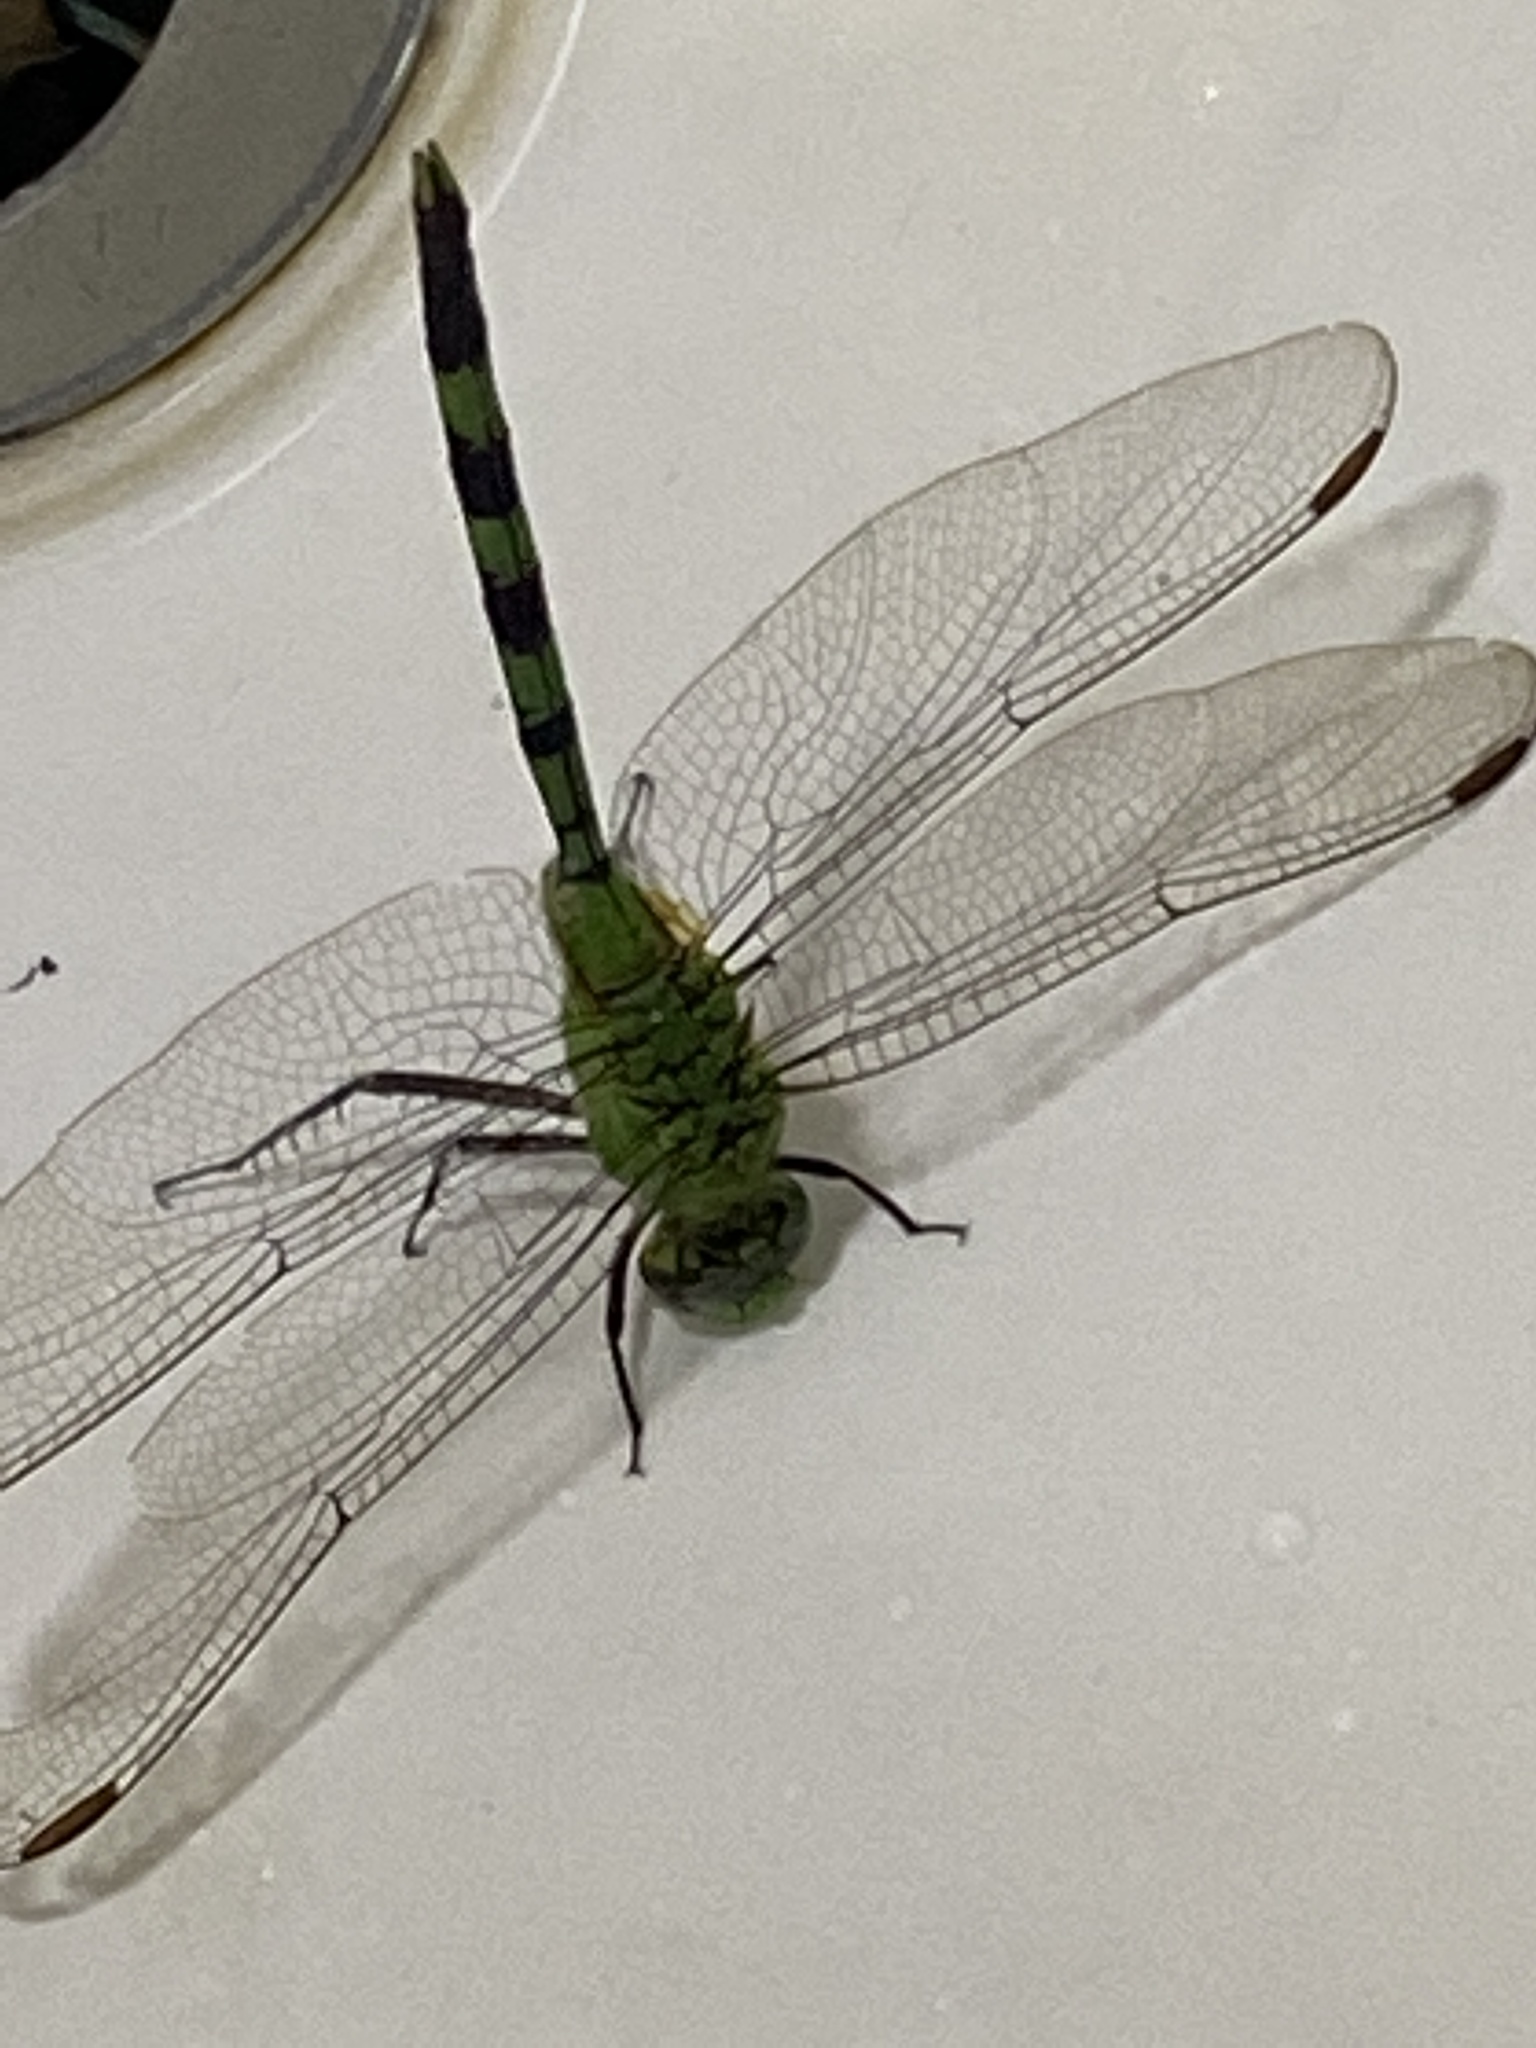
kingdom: Animalia
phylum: Arthropoda
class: Insecta
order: Odonata
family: Libellulidae
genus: Erythemis
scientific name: Erythemis vesiculosa
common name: Great pondhawk
